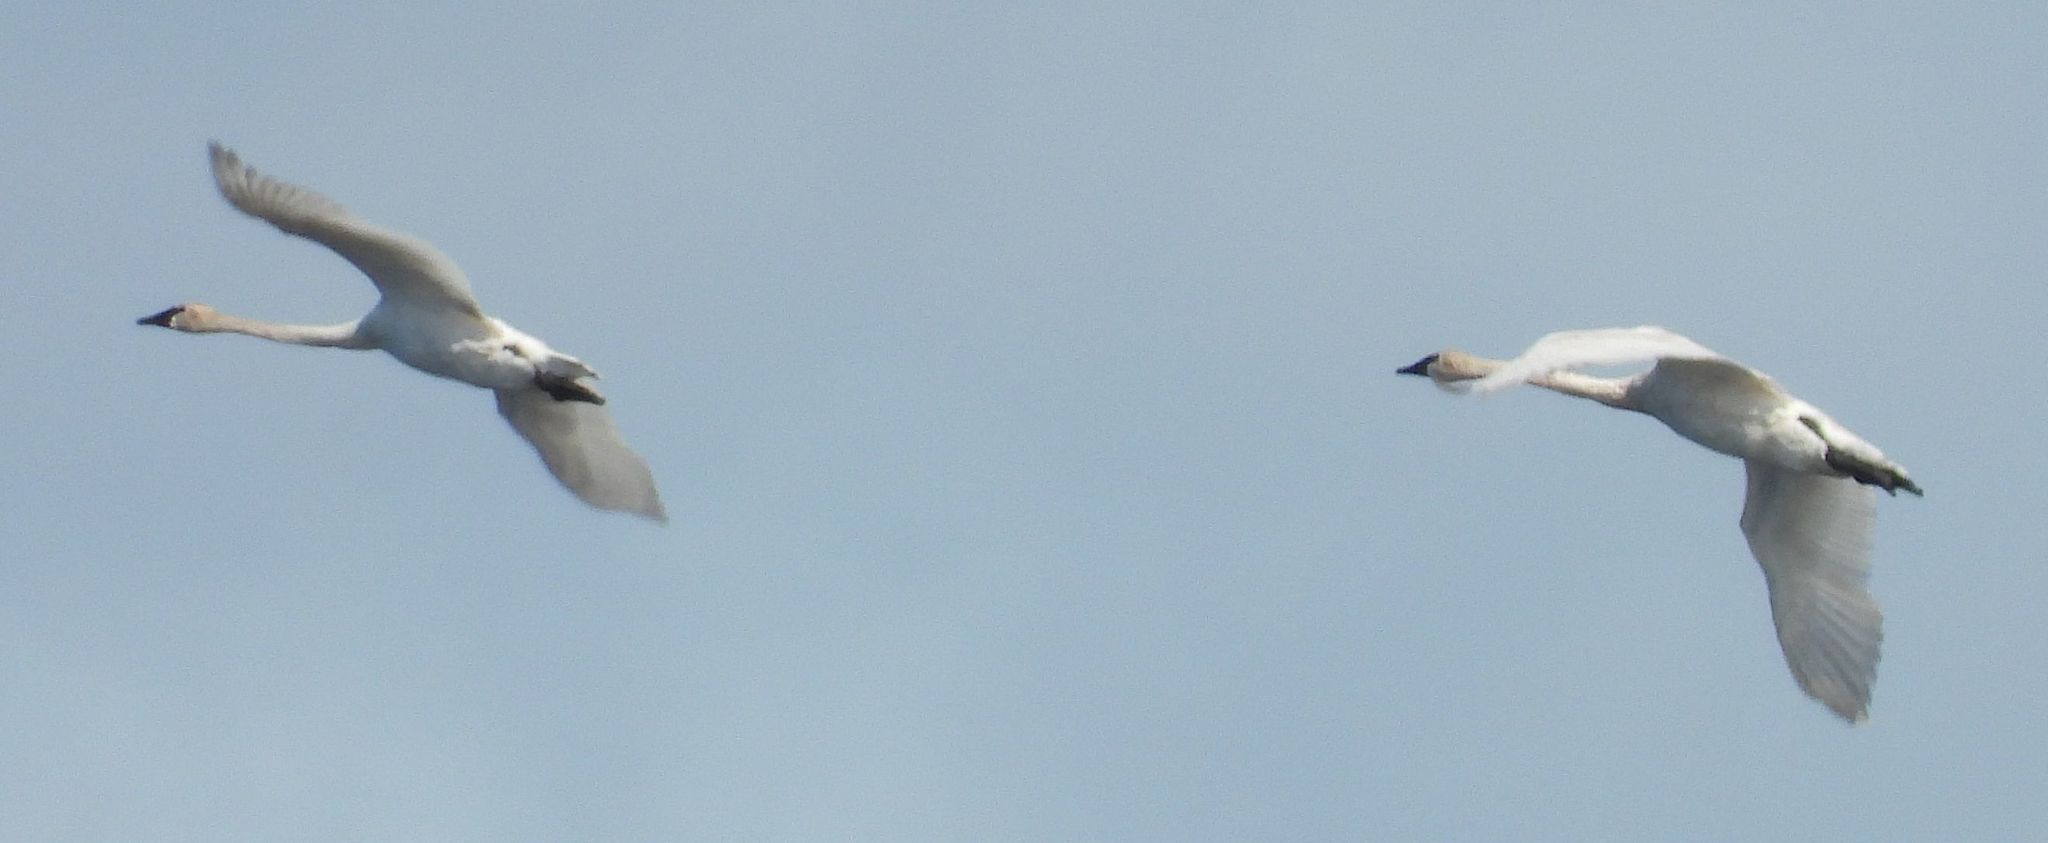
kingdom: Animalia
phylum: Chordata
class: Aves
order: Anseriformes
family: Anatidae
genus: Cygnus
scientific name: Cygnus buccinator
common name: Trumpeter swan
